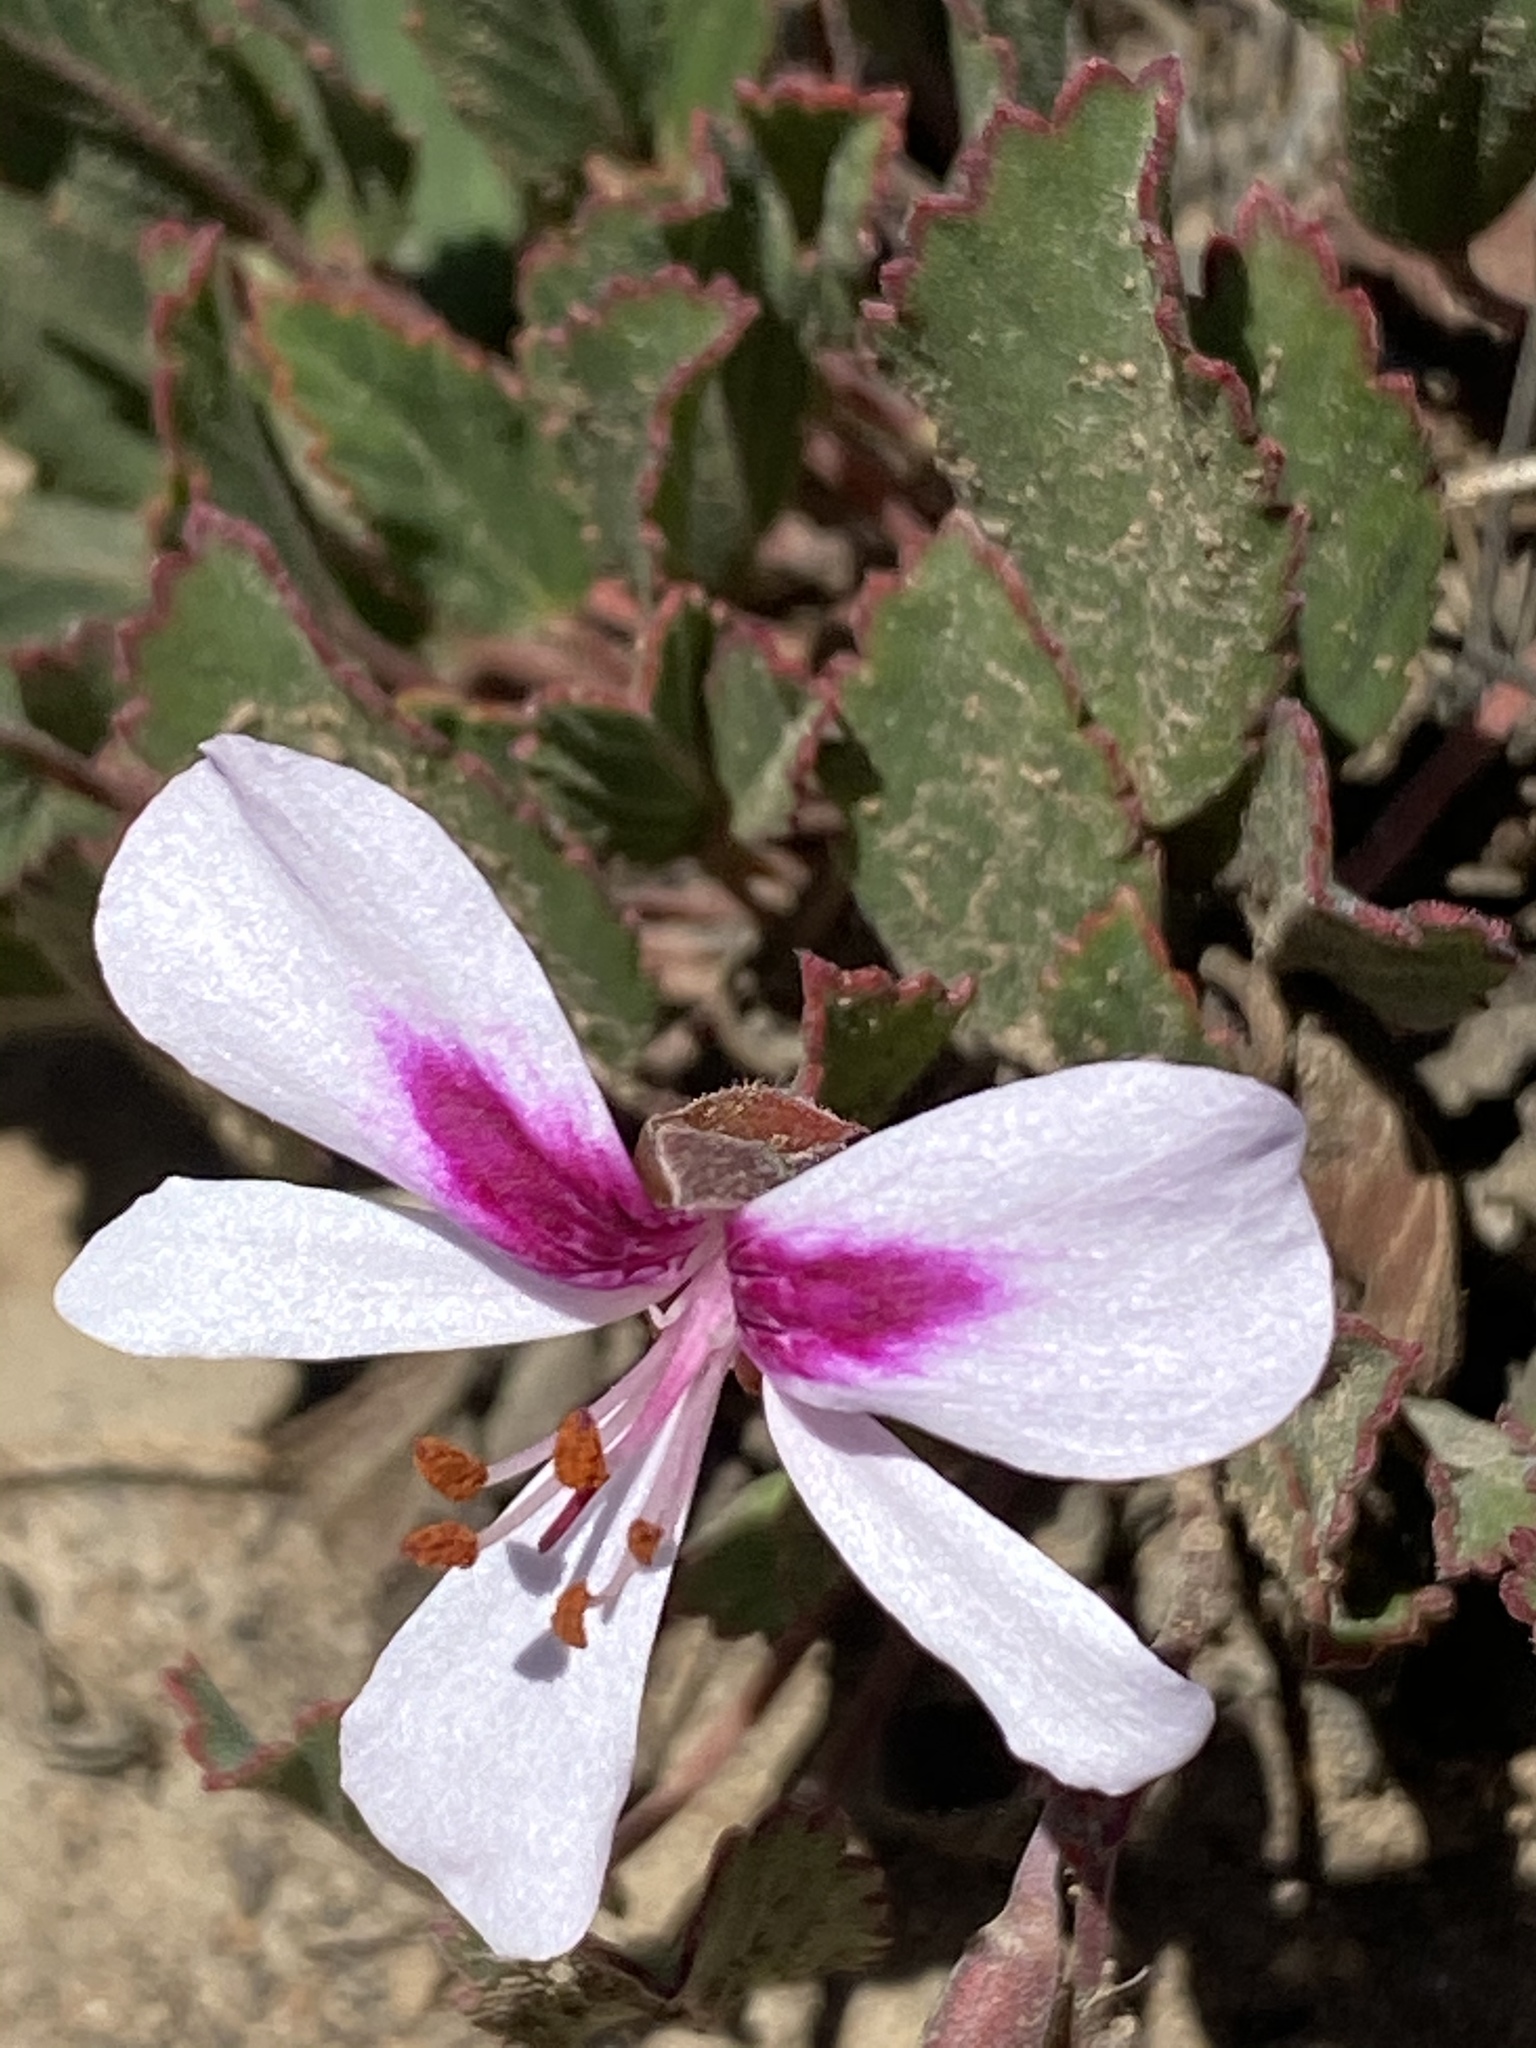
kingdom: Plantae
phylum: Tracheophyta
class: Magnoliopsida
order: Geraniales
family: Geraniaceae
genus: Pelargonium
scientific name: Pelargonium ovale
